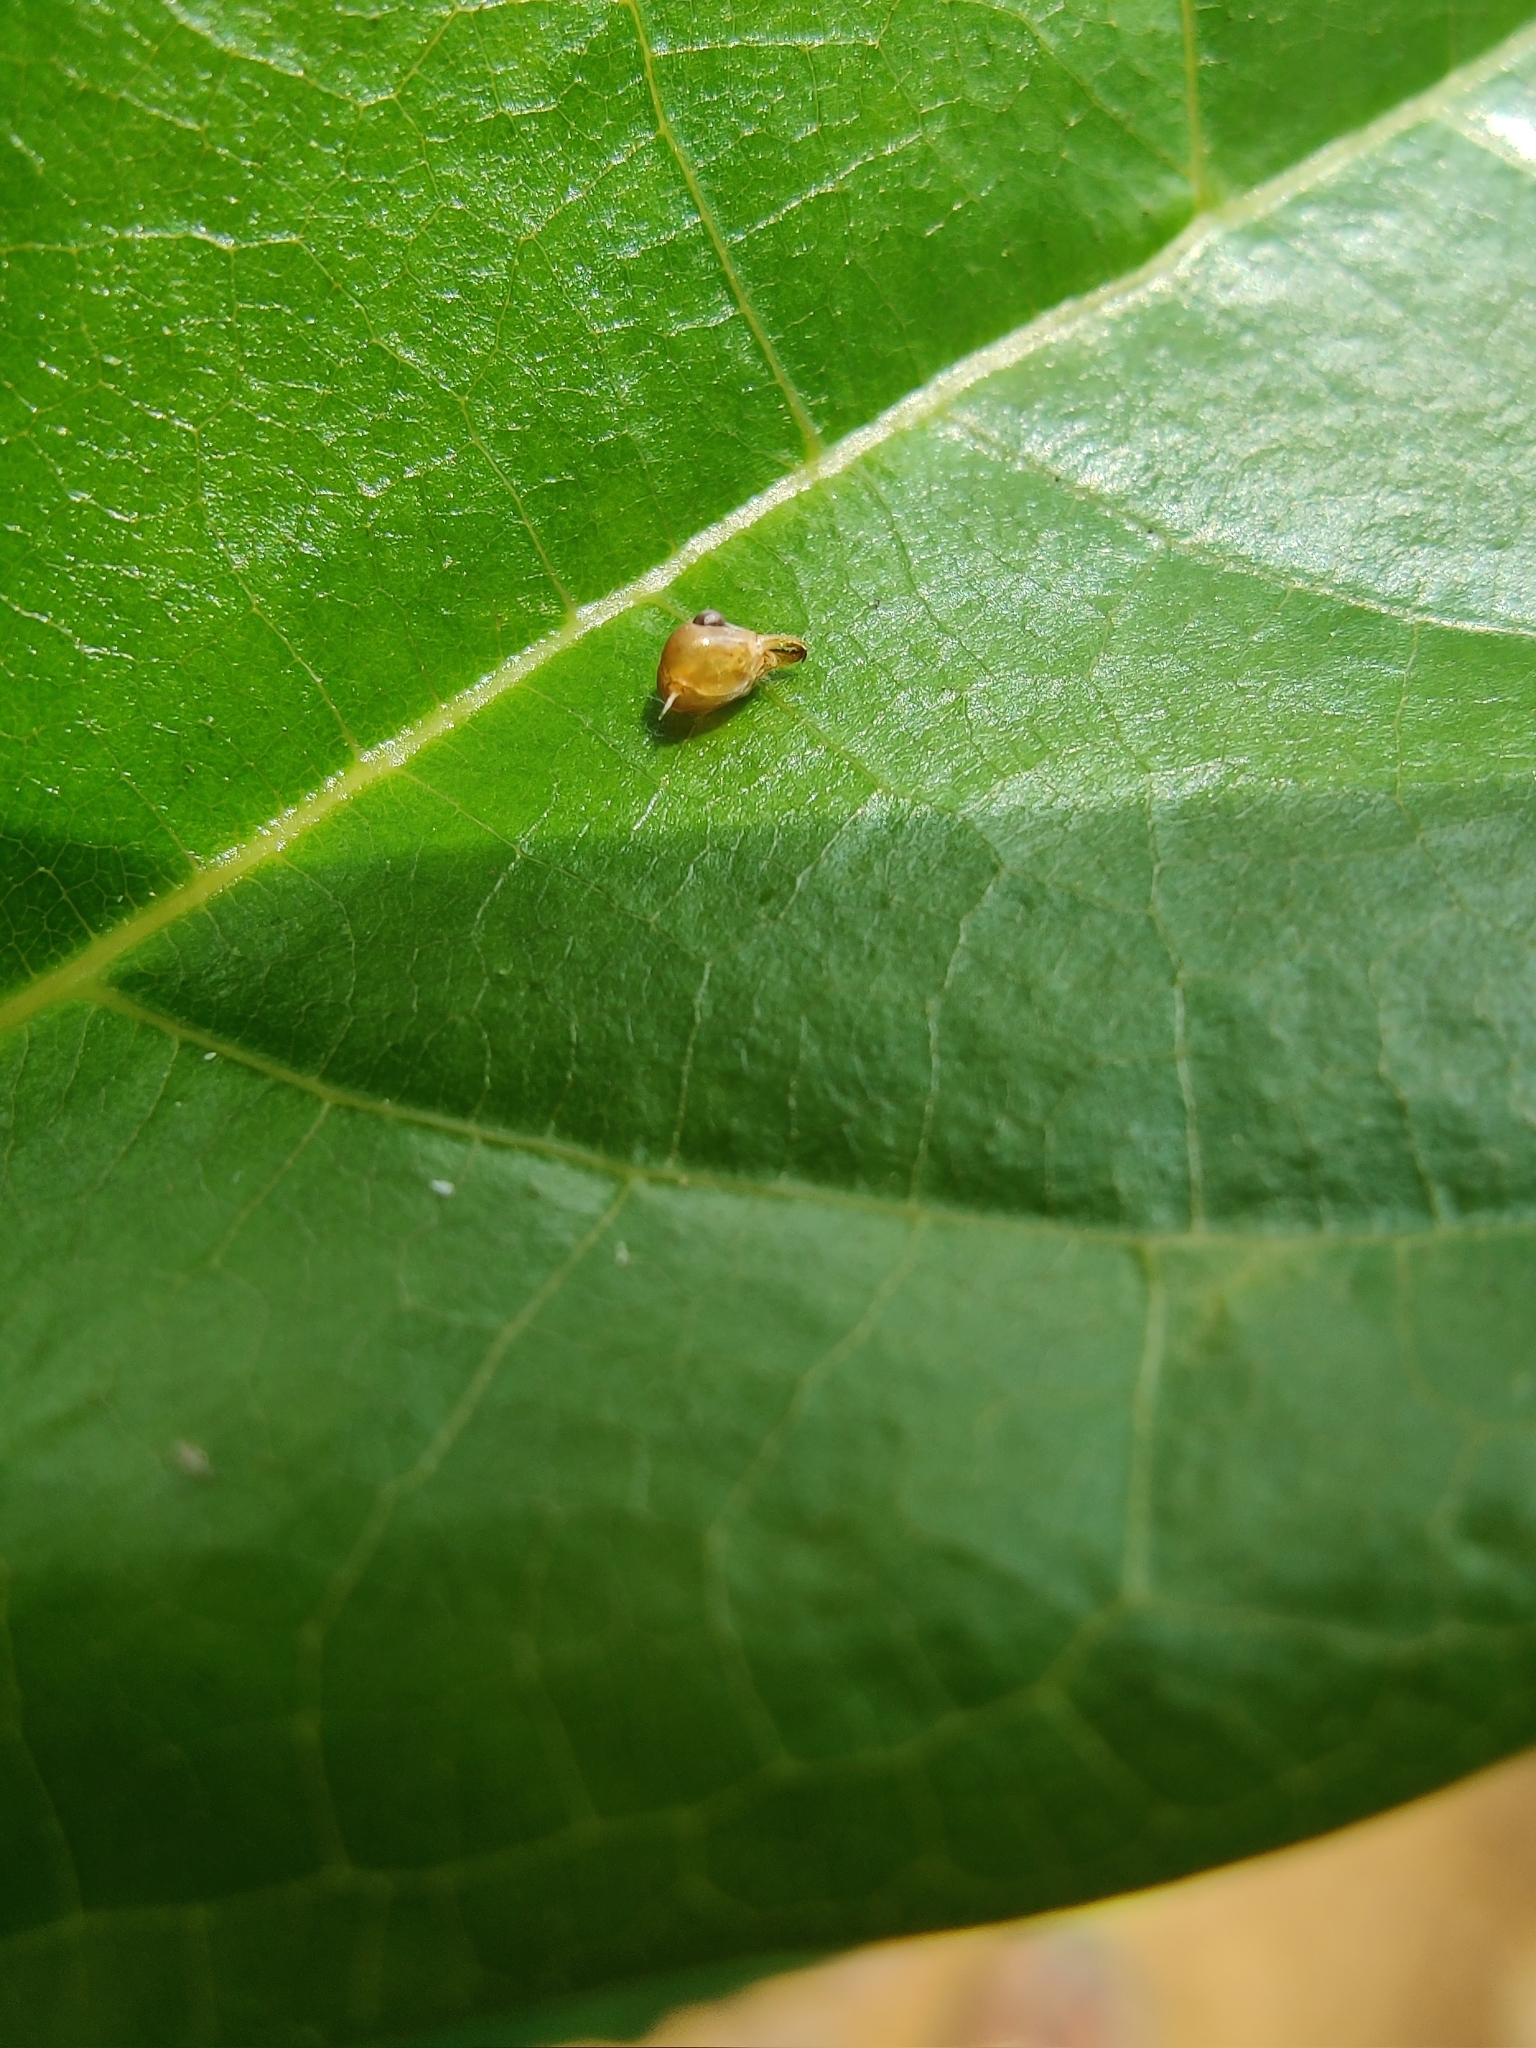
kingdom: Animalia
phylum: Arthropoda
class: Insecta
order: Hymenoptera
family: Formicidae
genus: Oecophylla
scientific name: Oecophylla smaragdina
